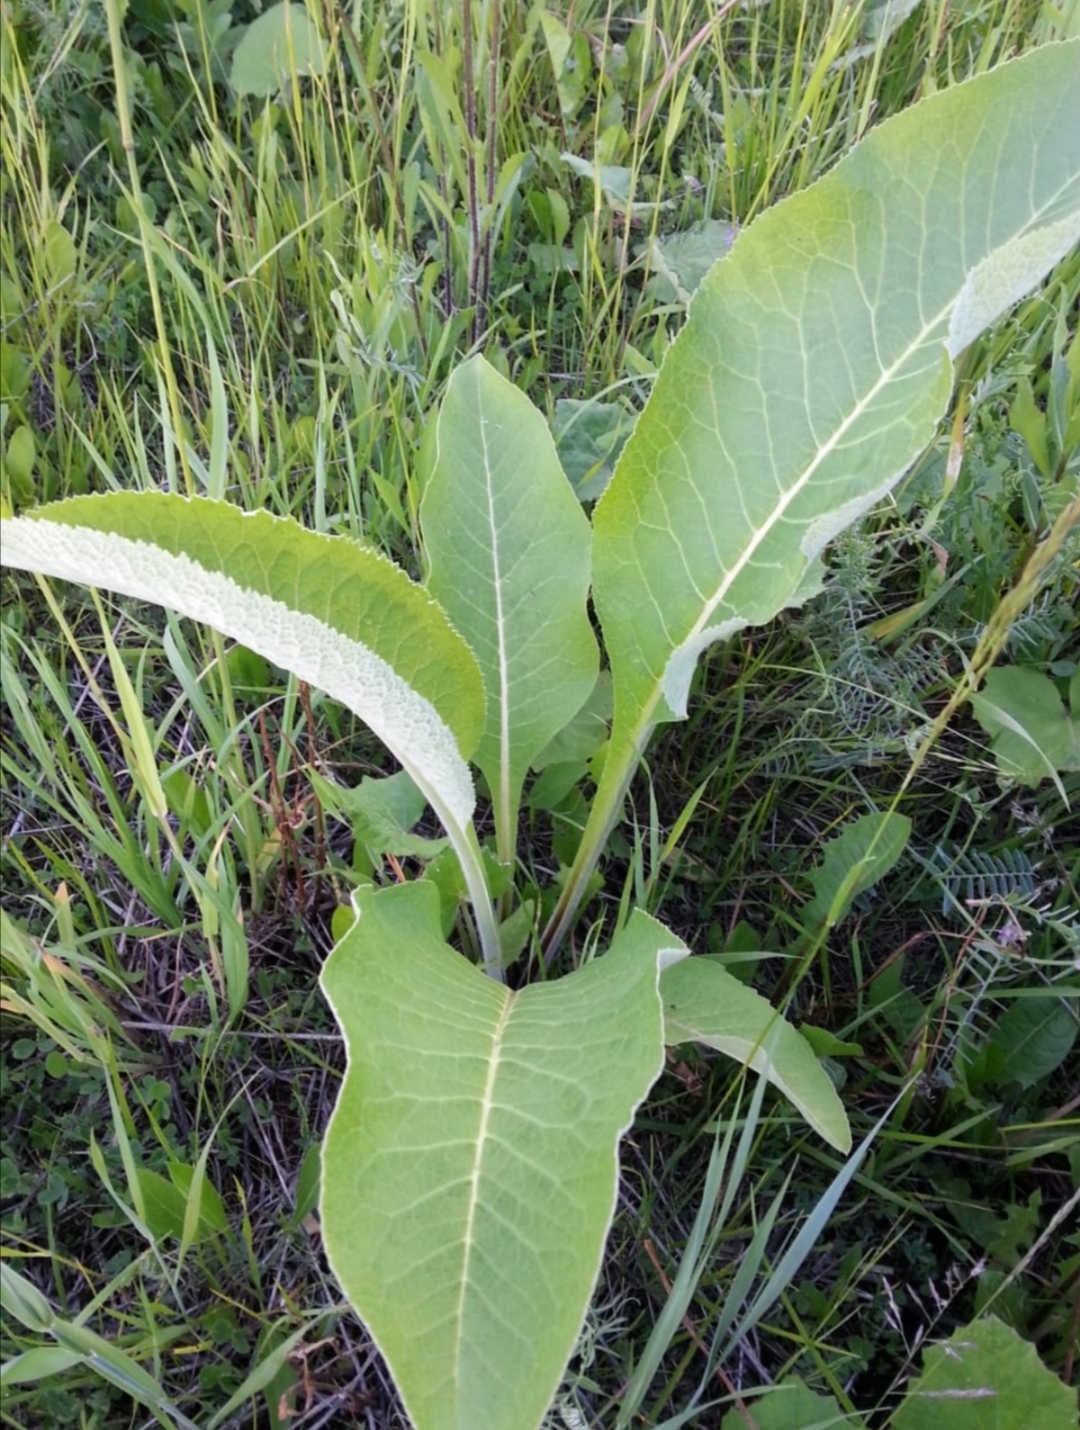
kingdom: Plantae
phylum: Tracheophyta
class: Magnoliopsida
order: Asterales
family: Asteraceae
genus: Inula
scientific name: Inula helenium
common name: Elecampane
